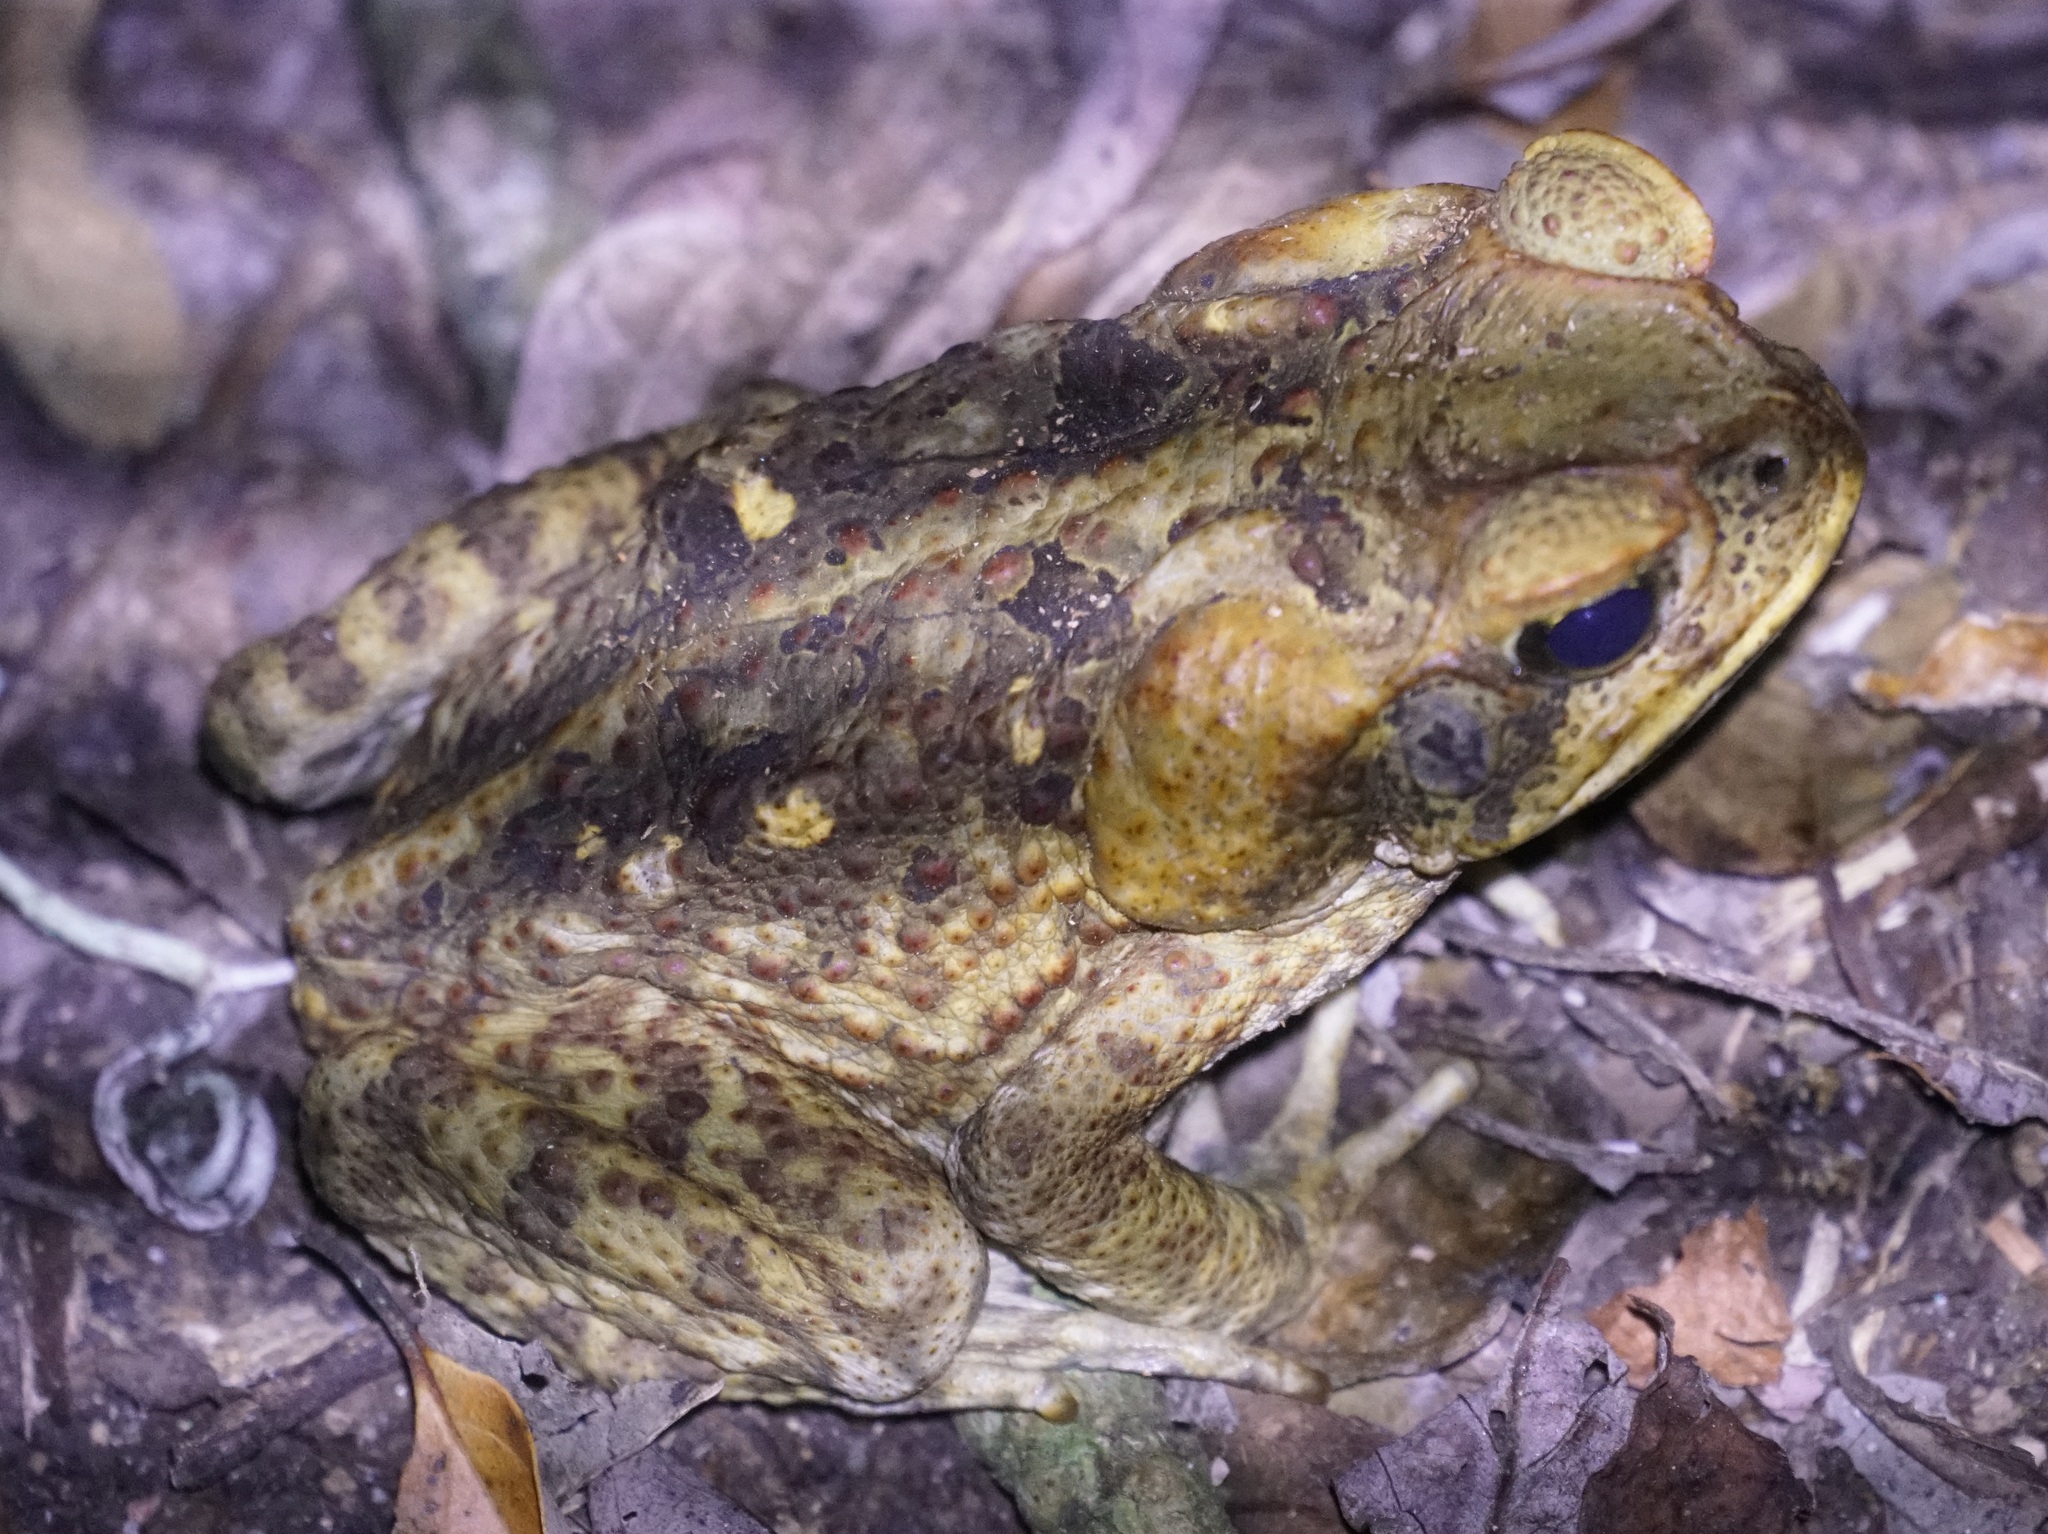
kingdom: Animalia
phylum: Chordata
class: Amphibia
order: Anura
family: Bufonidae
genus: Rhinella
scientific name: Rhinella marina
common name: Cane toad
